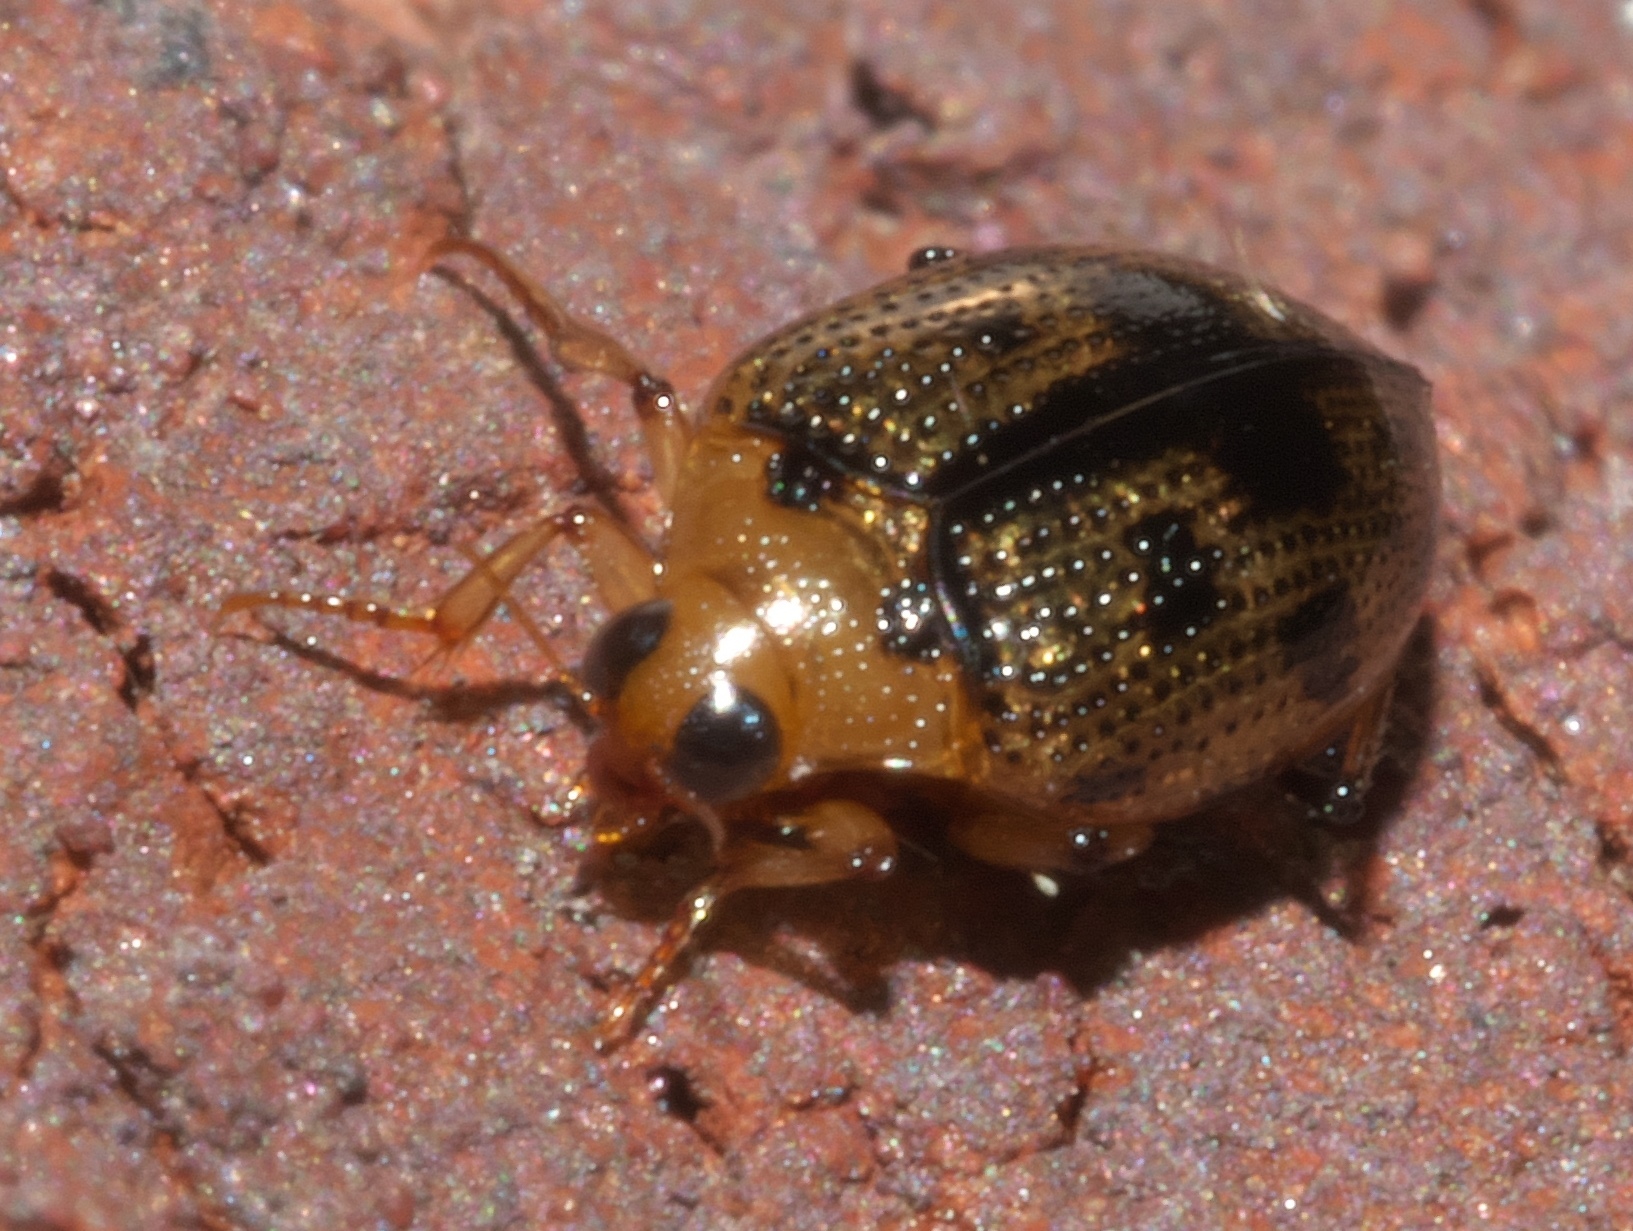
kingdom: Animalia
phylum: Arthropoda
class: Insecta
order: Coleoptera
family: Haliplidae
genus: Peltodytes
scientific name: Peltodytes muticus
